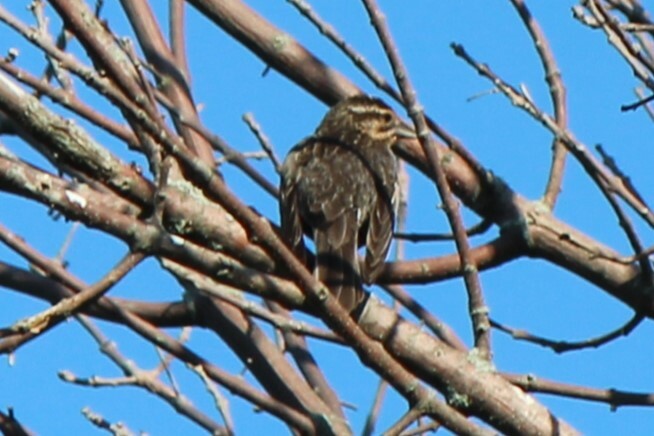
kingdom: Animalia
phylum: Chordata
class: Aves
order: Passeriformes
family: Icteridae
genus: Agelaius
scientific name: Agelaius phoeniceus
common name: Red-winged blackbird
